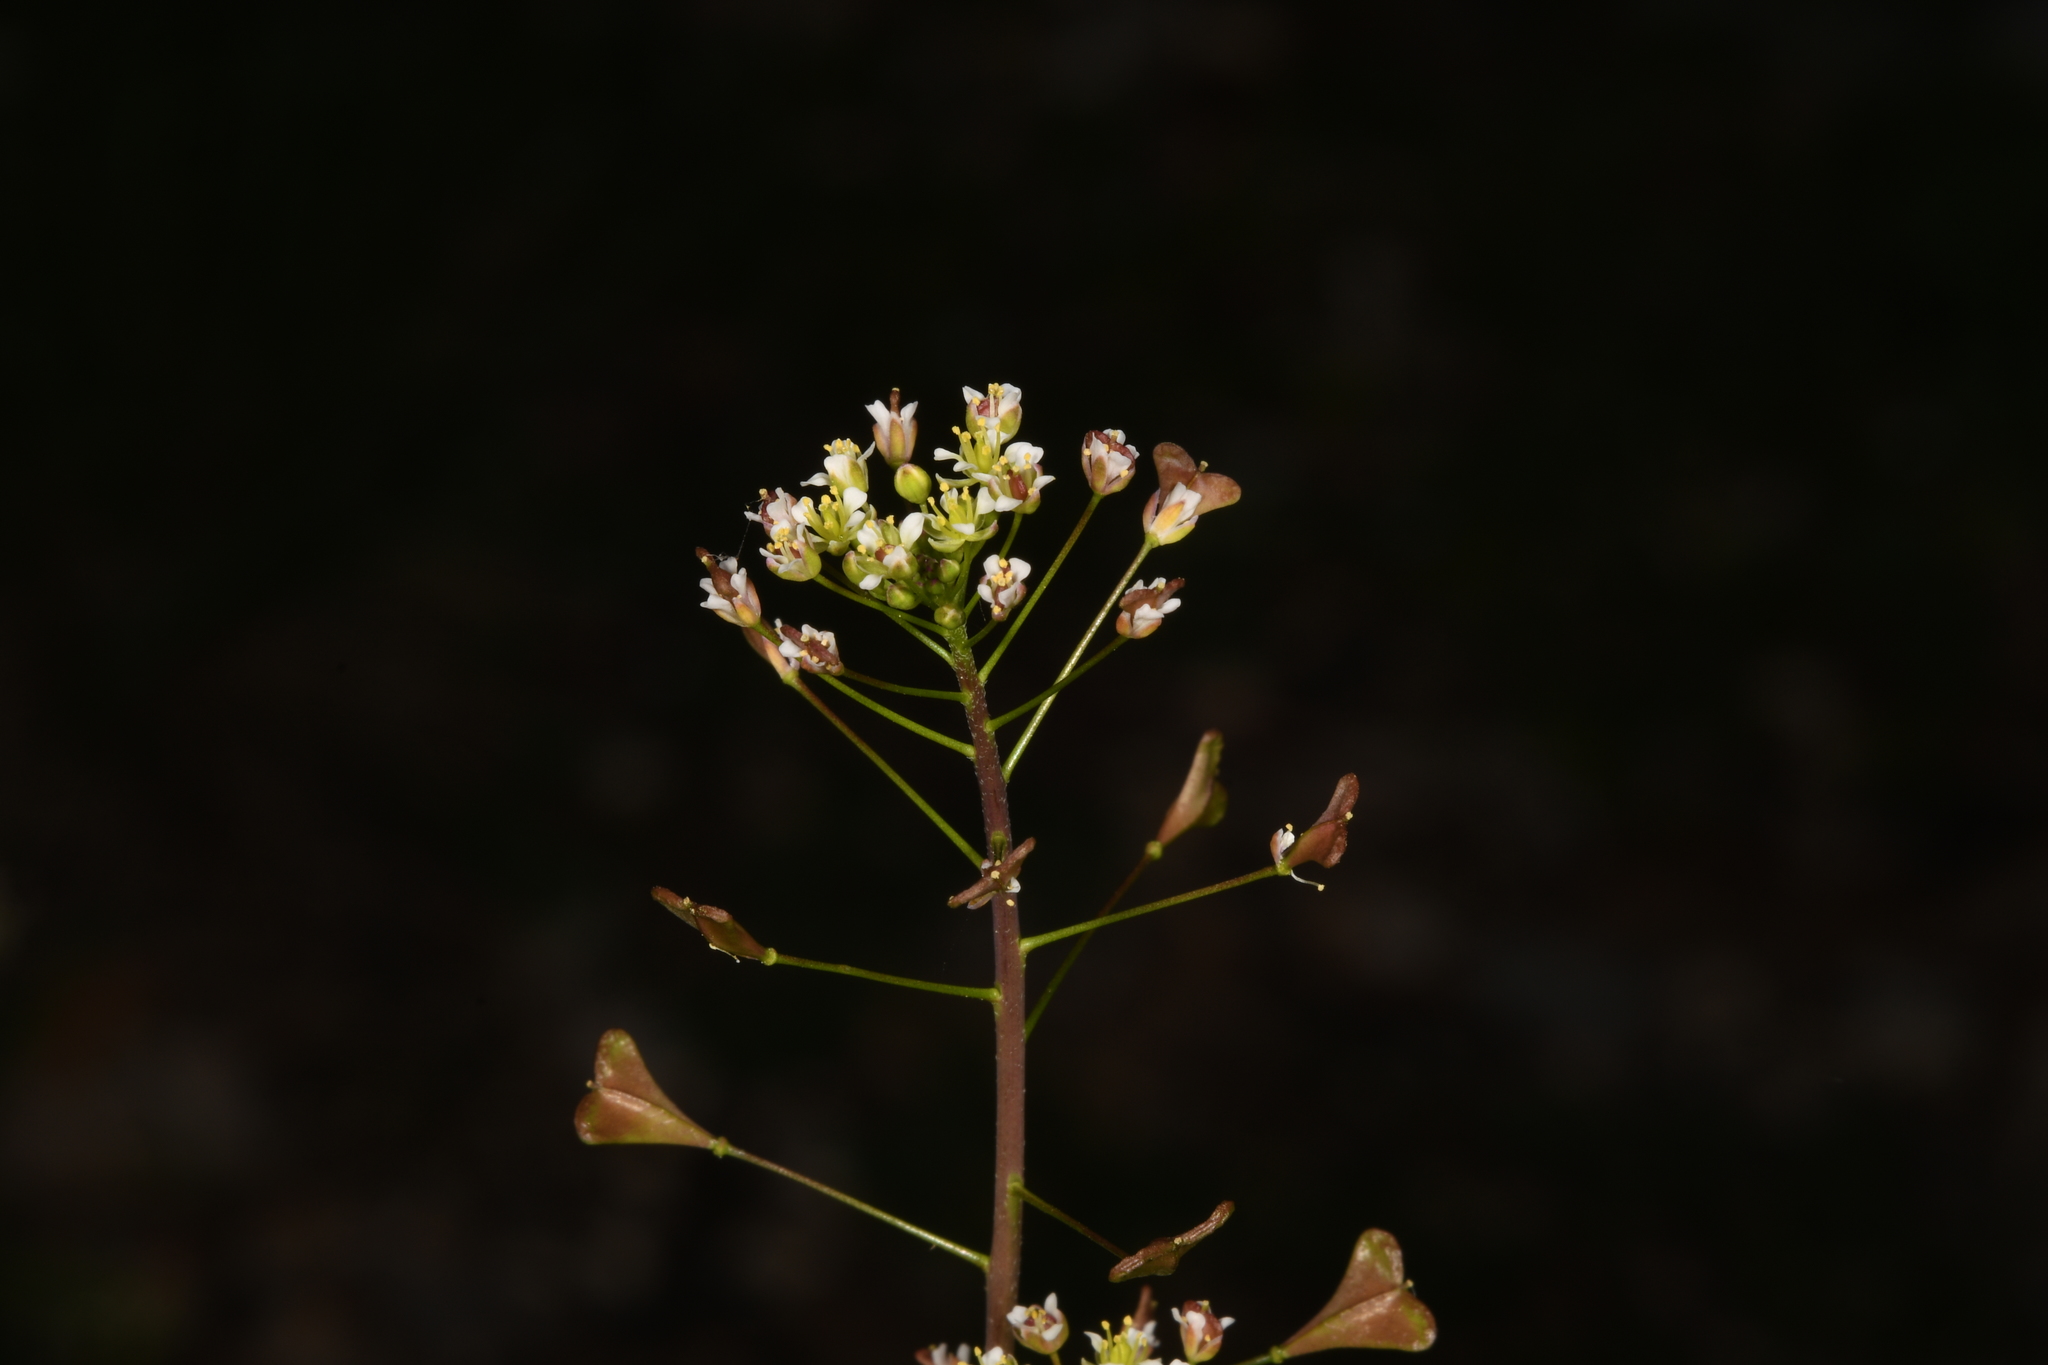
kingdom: Plantae
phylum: Tracheophyta
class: Magnoliopsida
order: Brassicales
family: Brassicaceae
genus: Capsella
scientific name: Capsella rubella
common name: Pink shepherd's-purse
